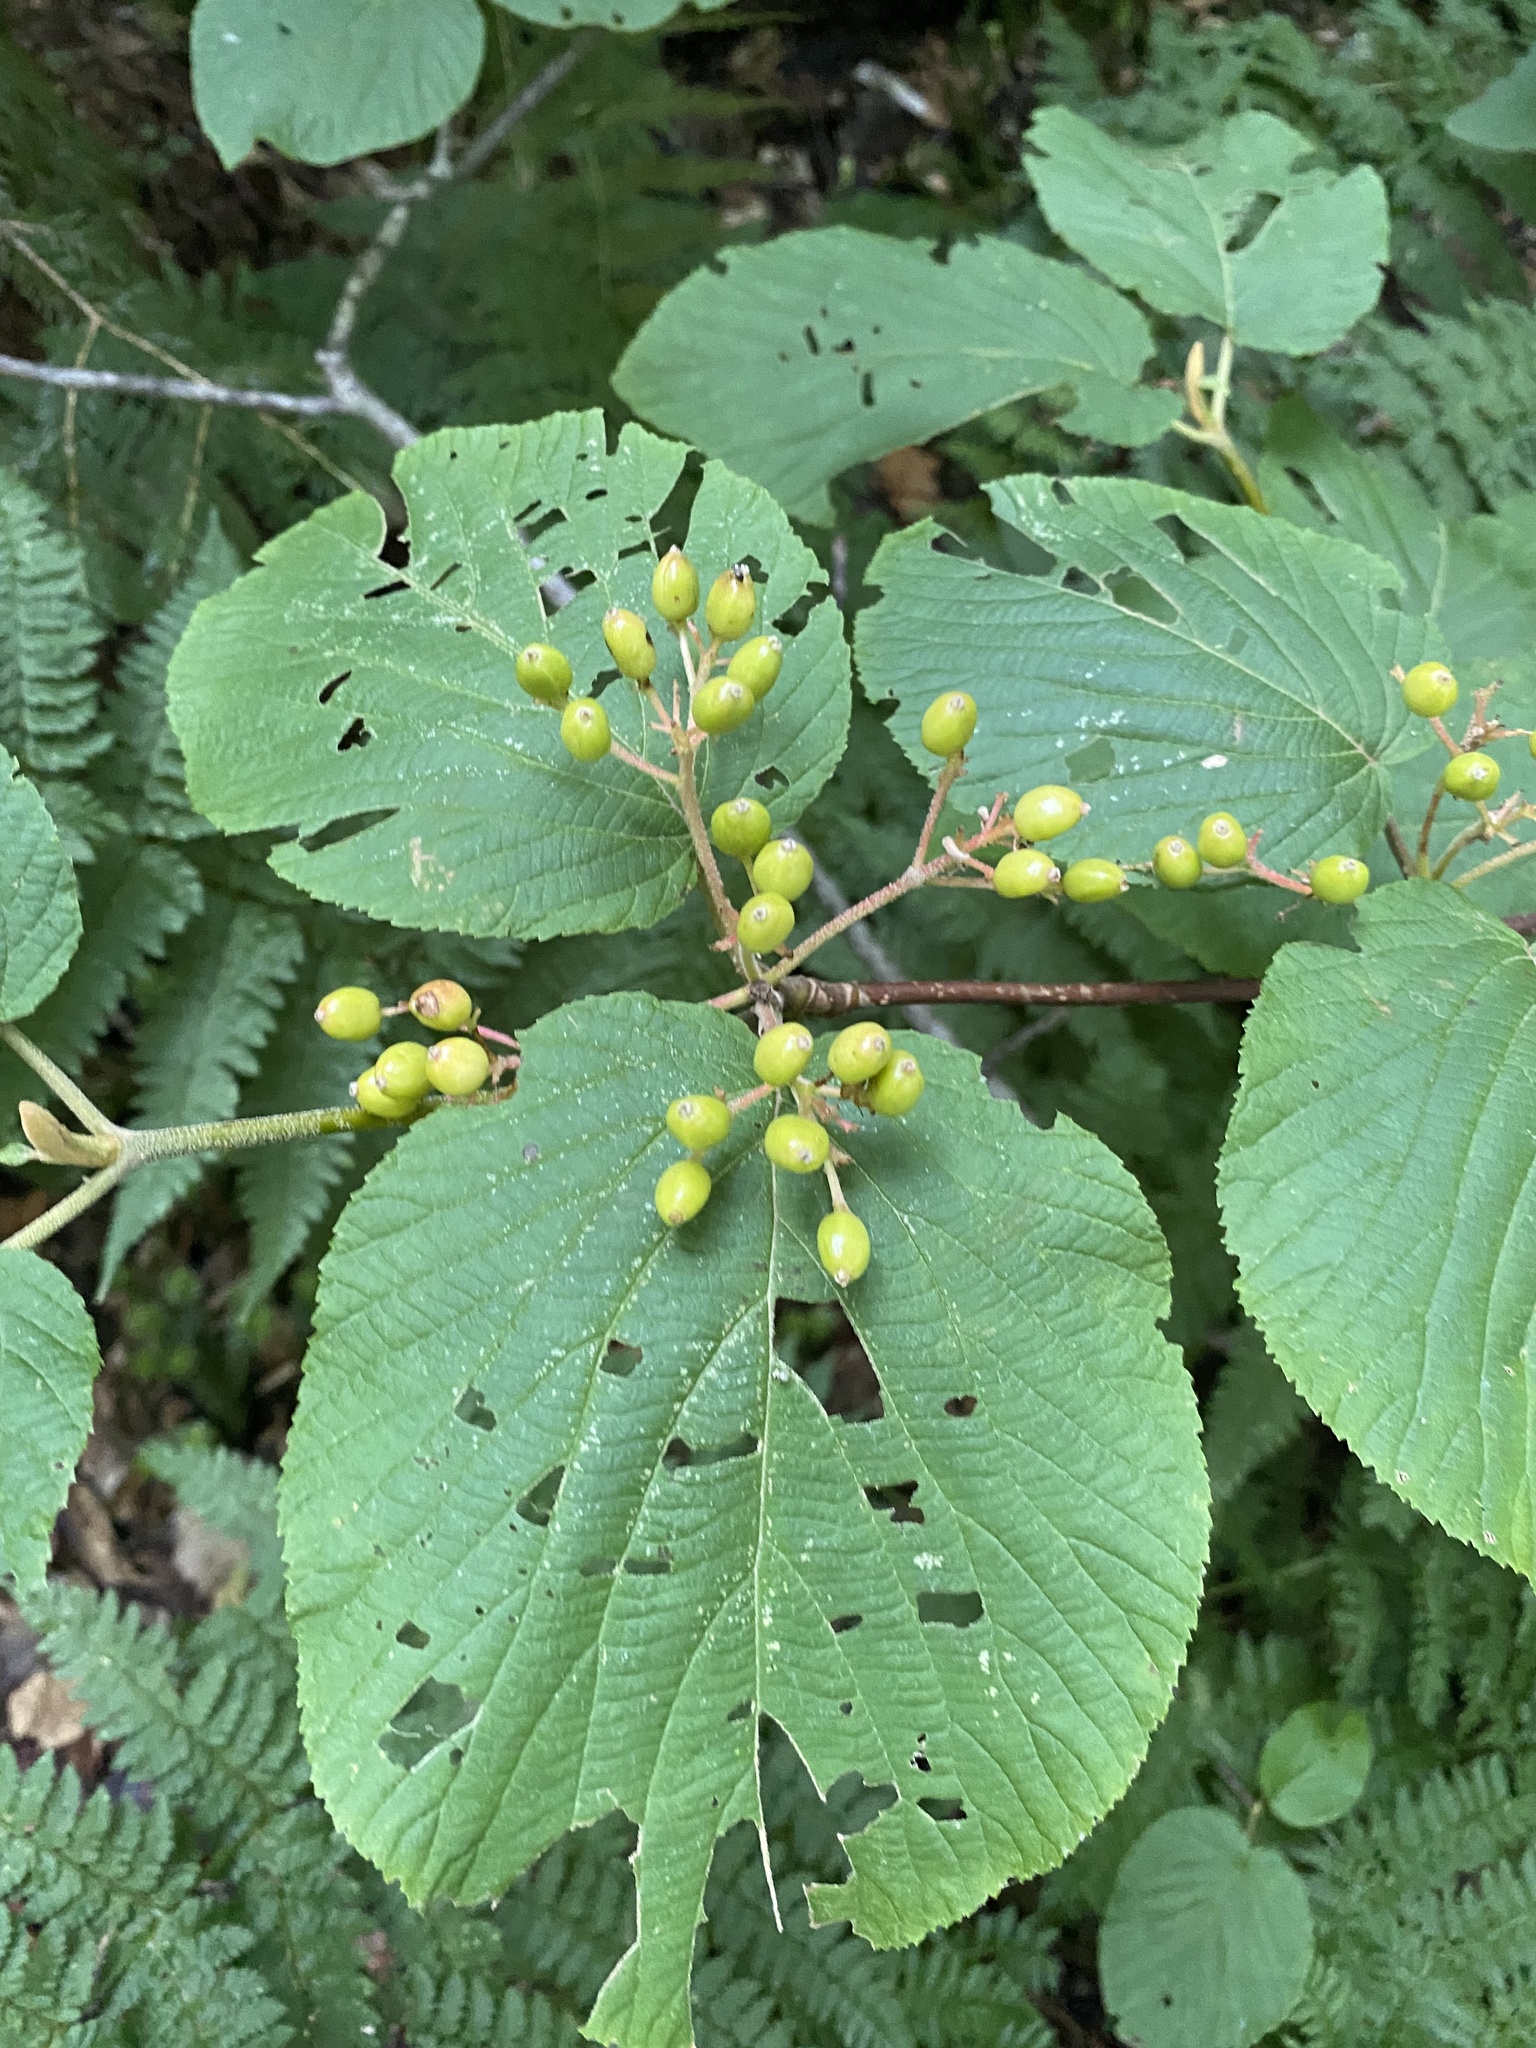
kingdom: Plantae
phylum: Tracheophyta
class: Magnoliopsida
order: Dipsacales
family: Viburnaceae
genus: Viburnum
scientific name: Viburnum lantanoides
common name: Hobblebush
